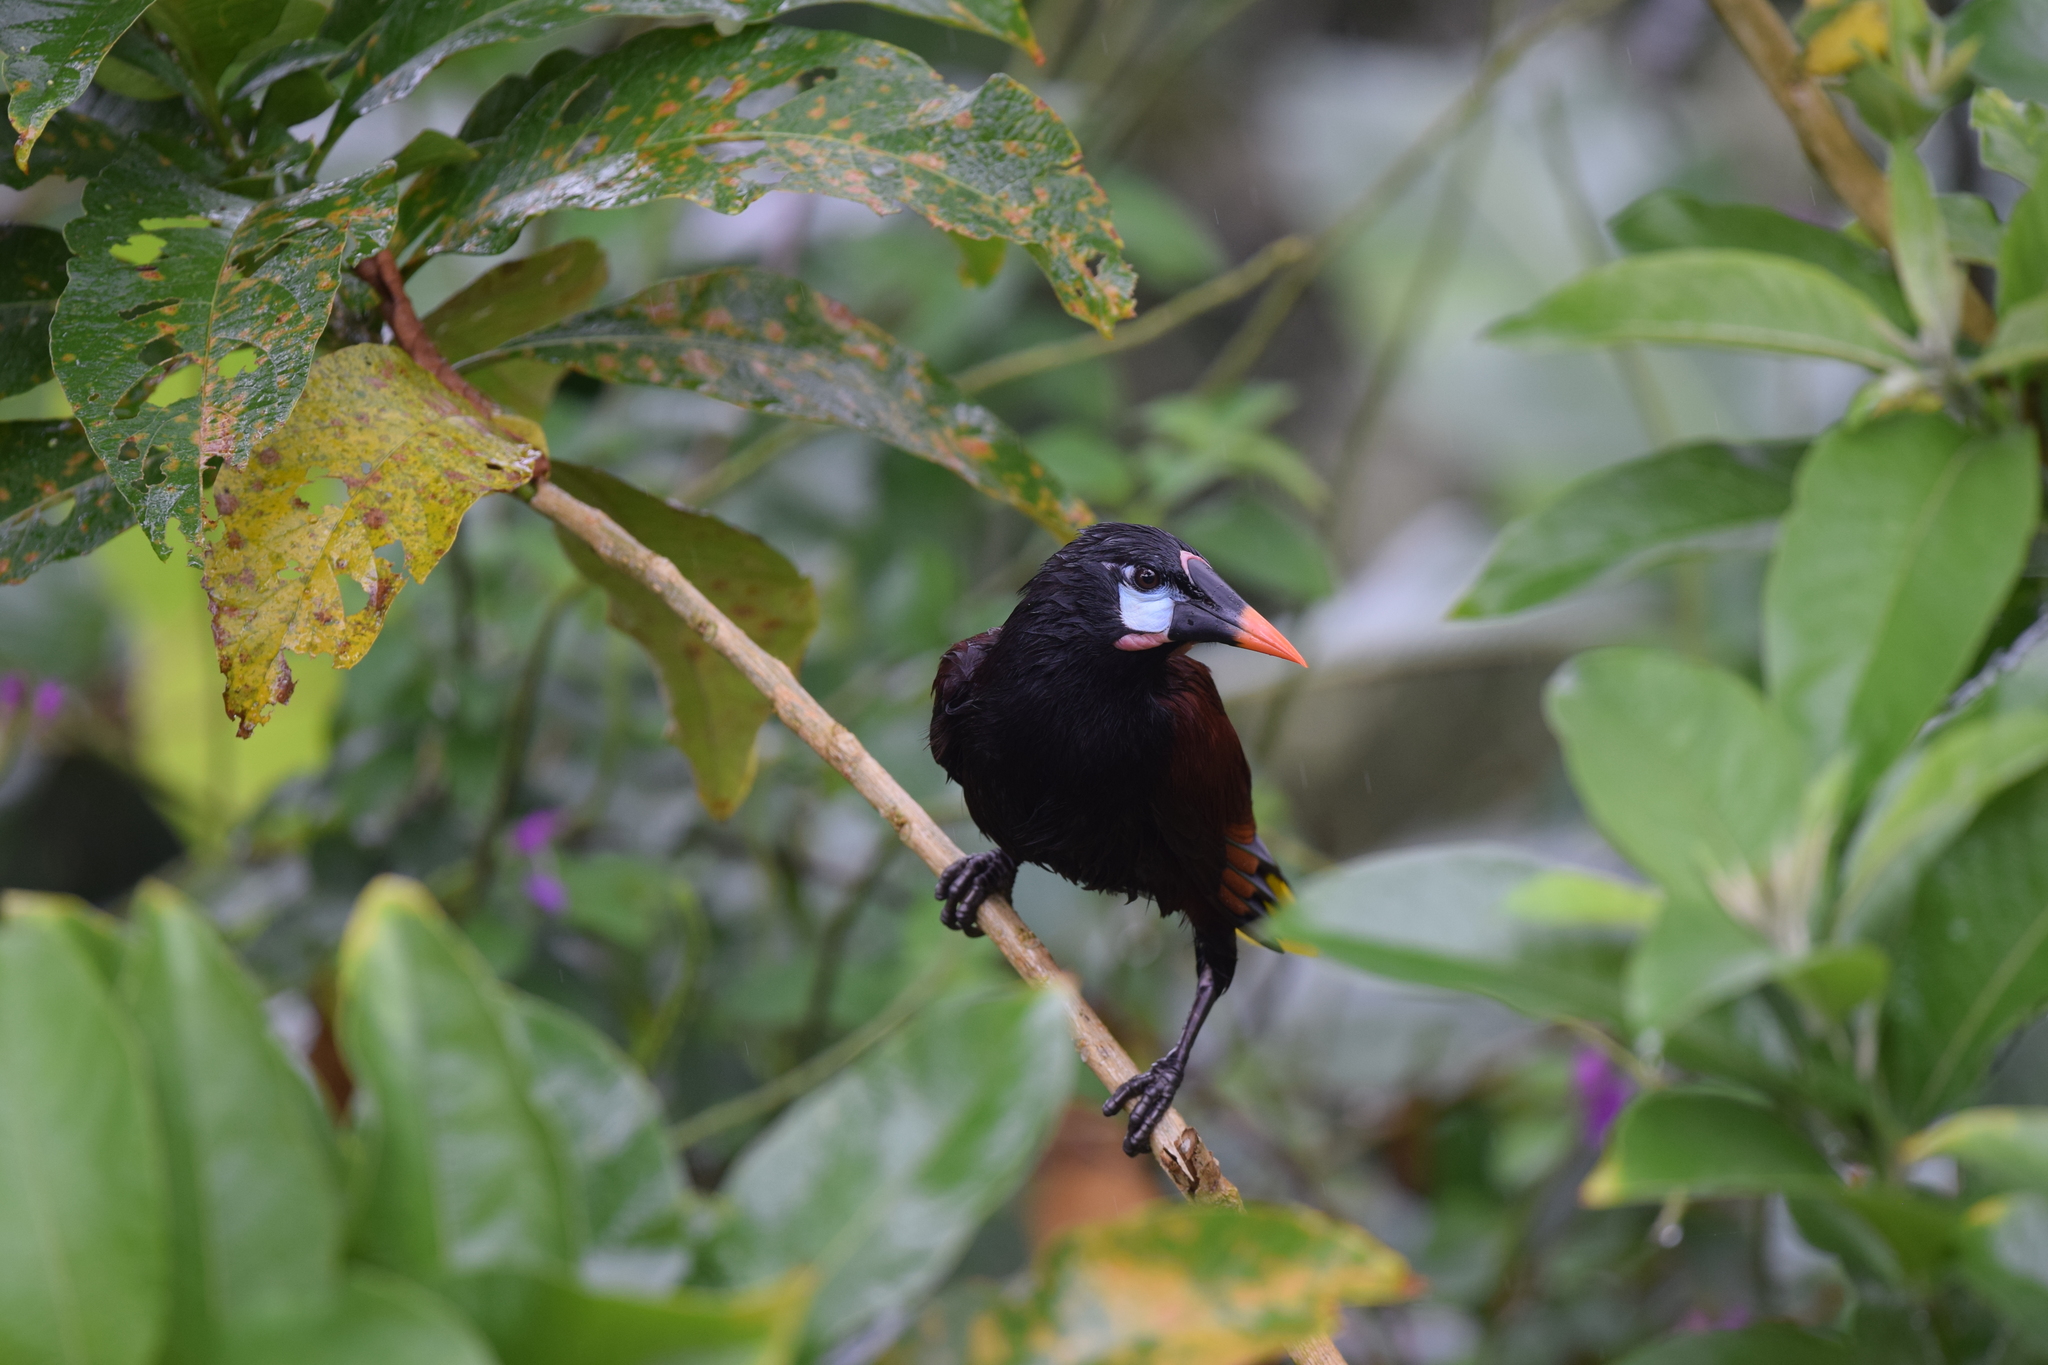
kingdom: Animalia
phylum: Chordata
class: Aves
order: Passeriformes
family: Icteridae
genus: Psarocolius
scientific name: Psarocolius montezuma
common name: Montezuma oropendola
